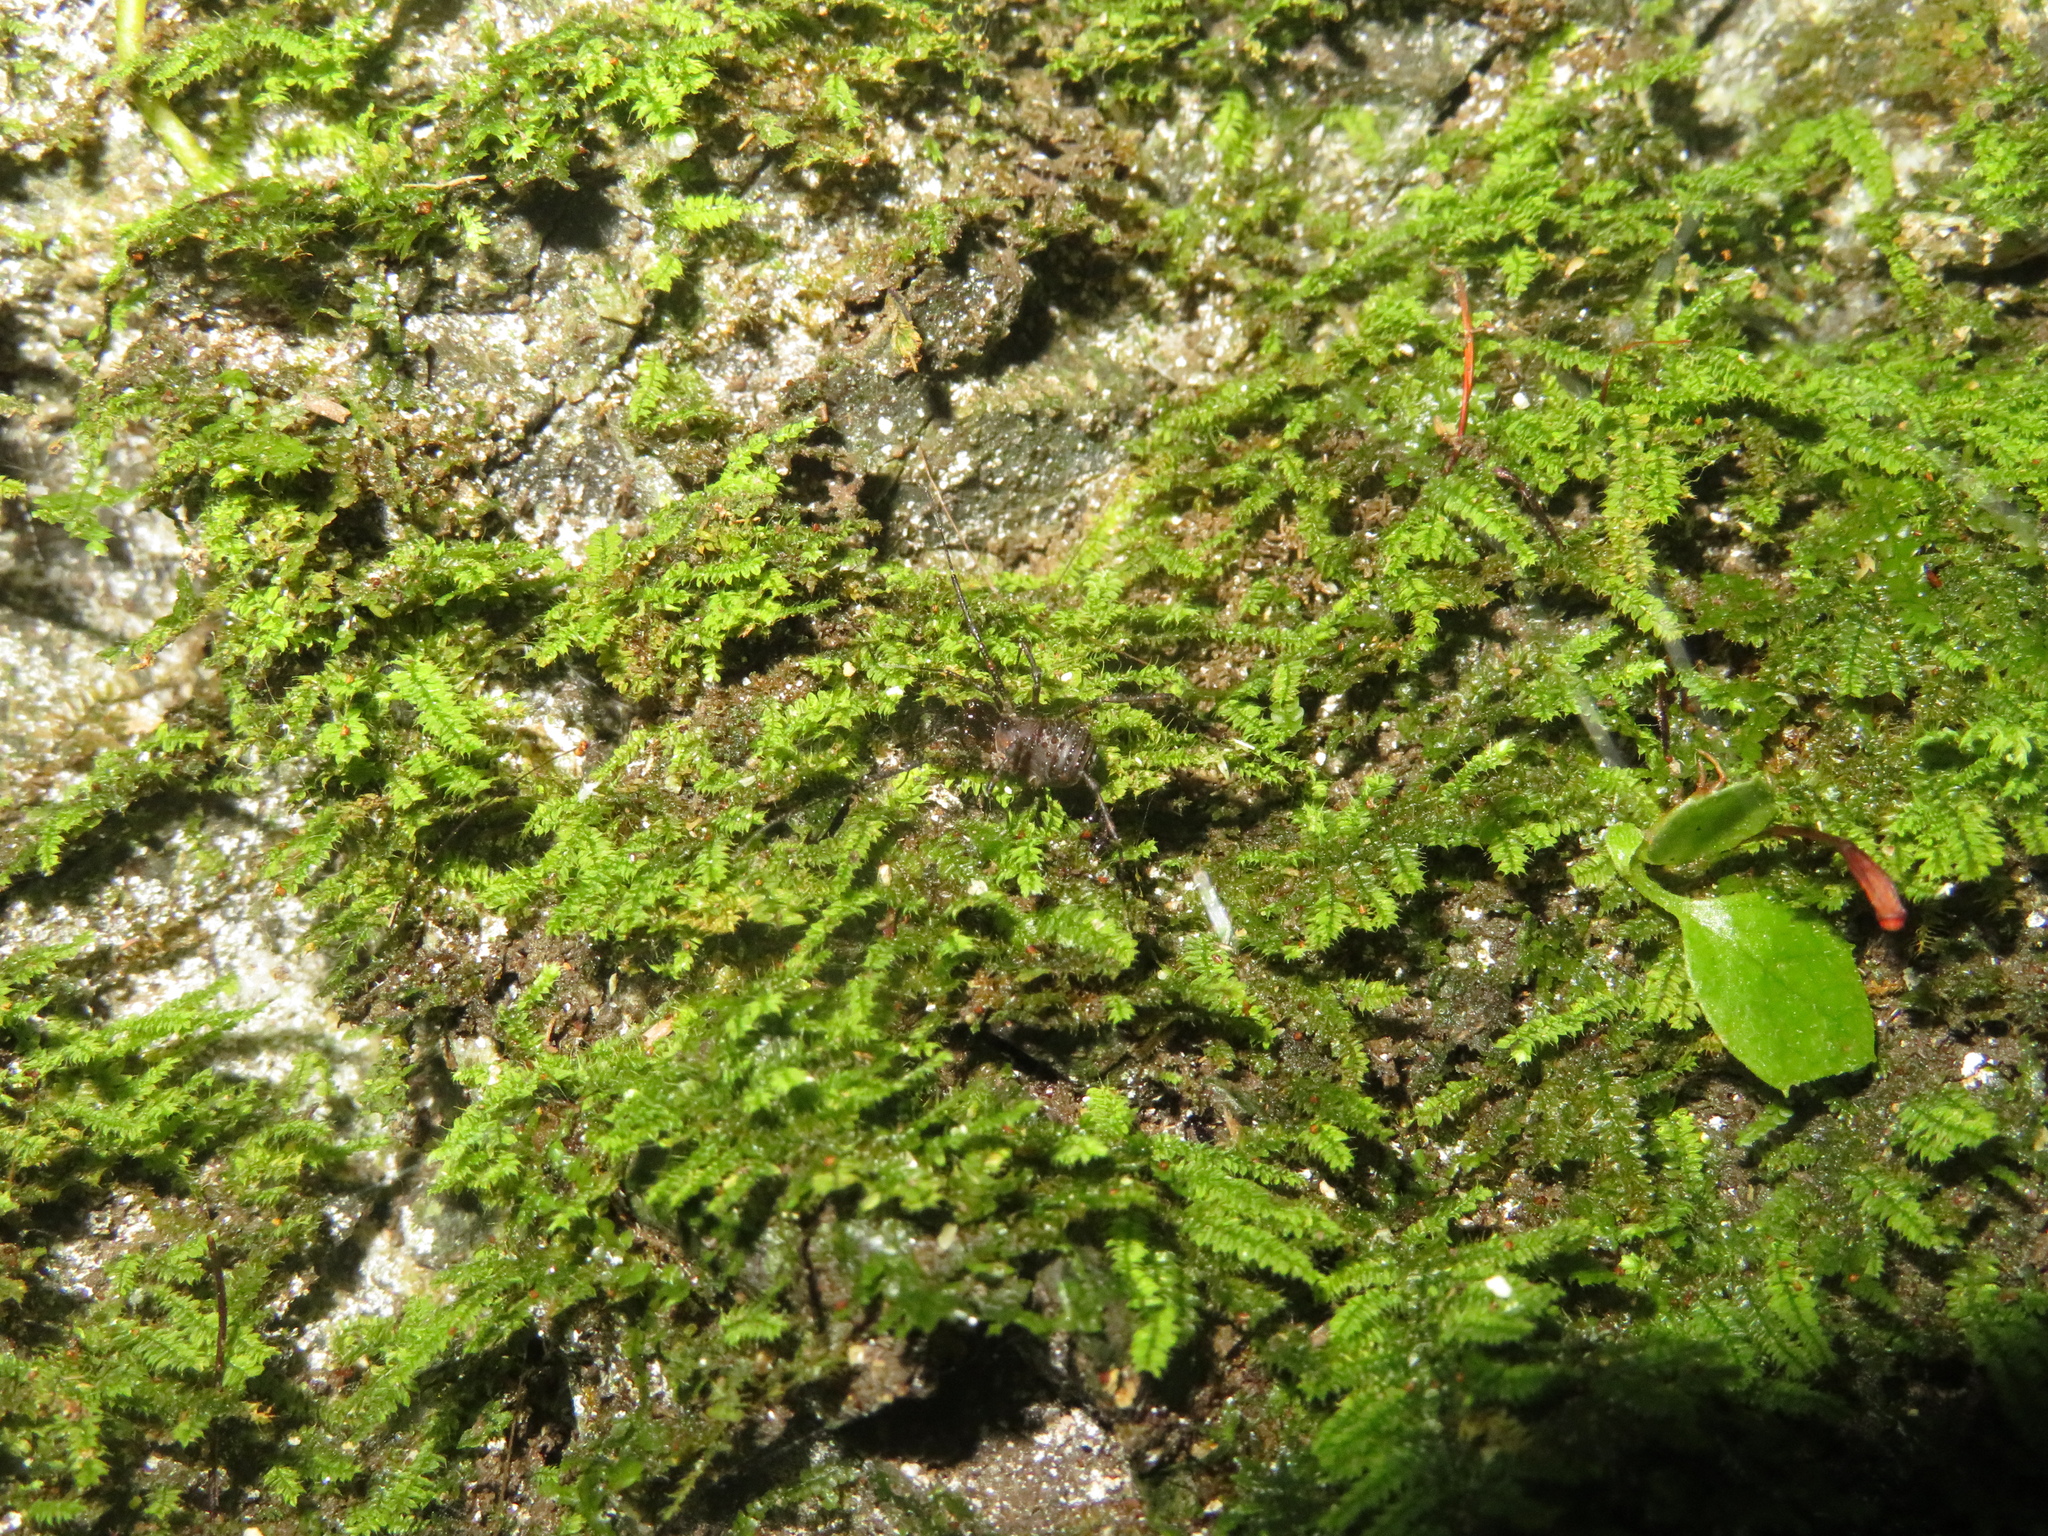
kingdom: Animalia
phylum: Arthropoda
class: Arachnida
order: Opiliones
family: Triaenonychidae
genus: Hendea
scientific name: Hendea myersi
